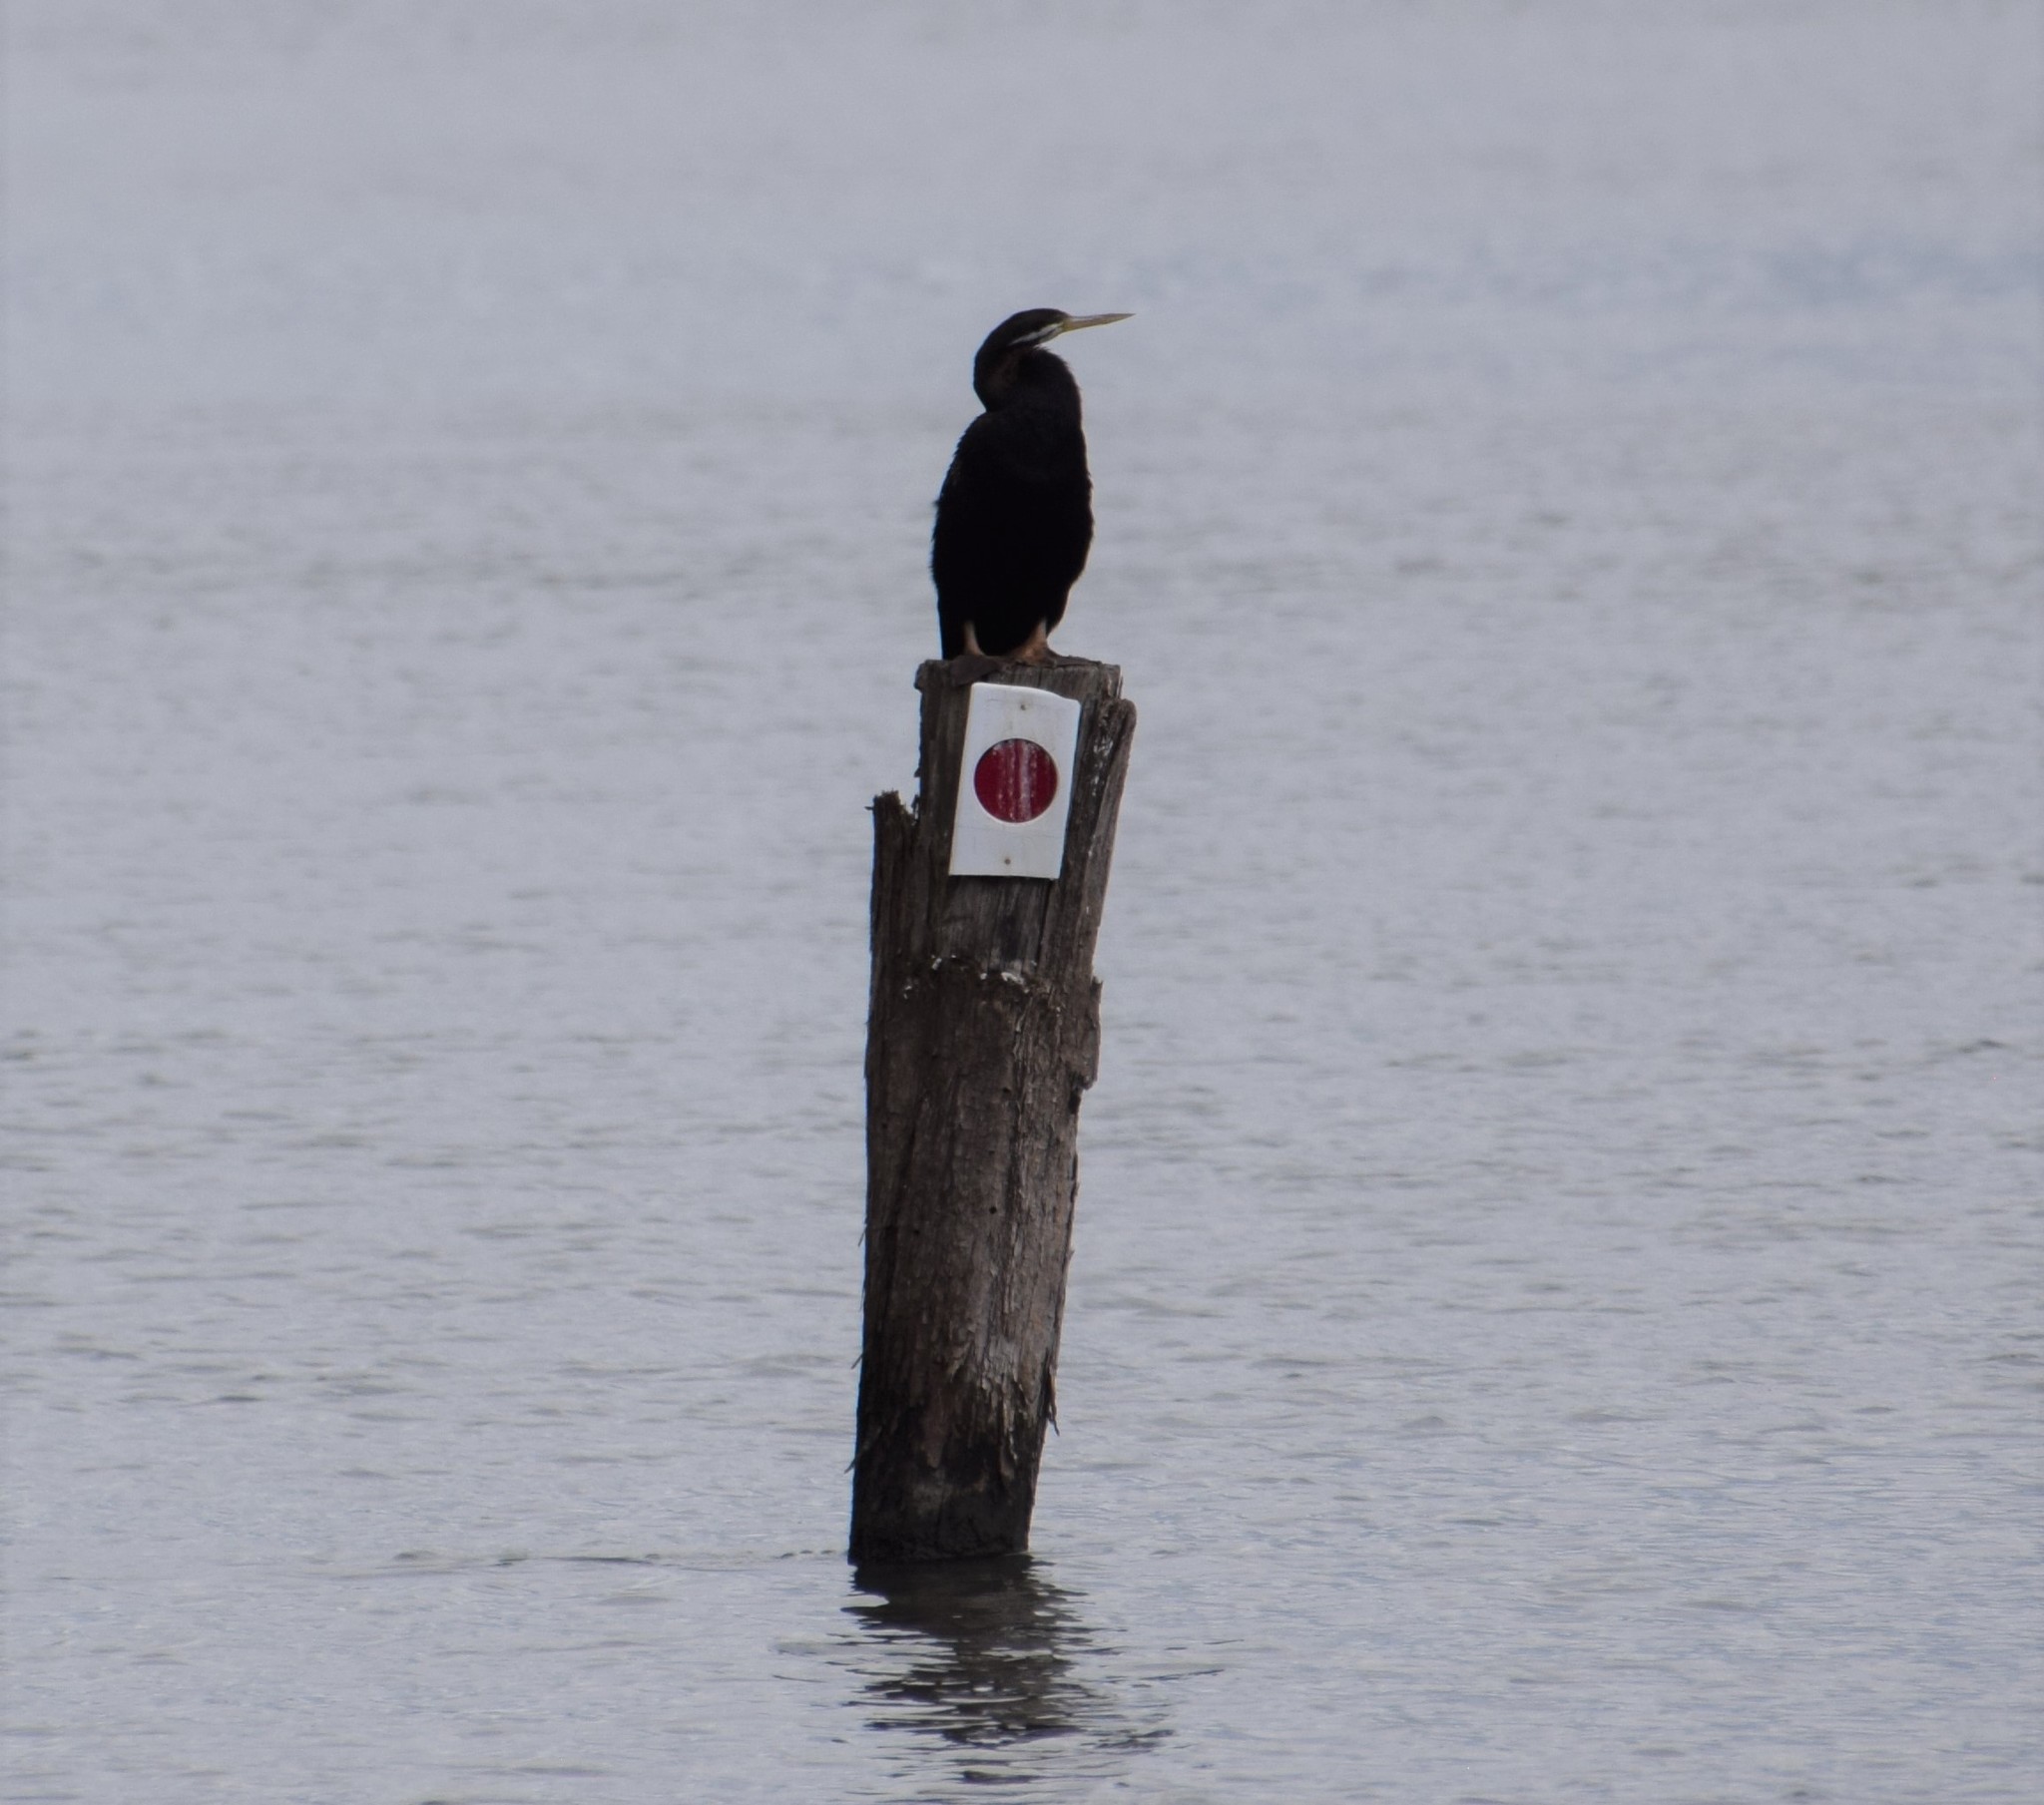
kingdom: Animalia
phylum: Chordata
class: Aves
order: Suliformes
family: Anhingidae
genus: Anhinga
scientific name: Anhinga novaehollandiae
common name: Australasian darter
